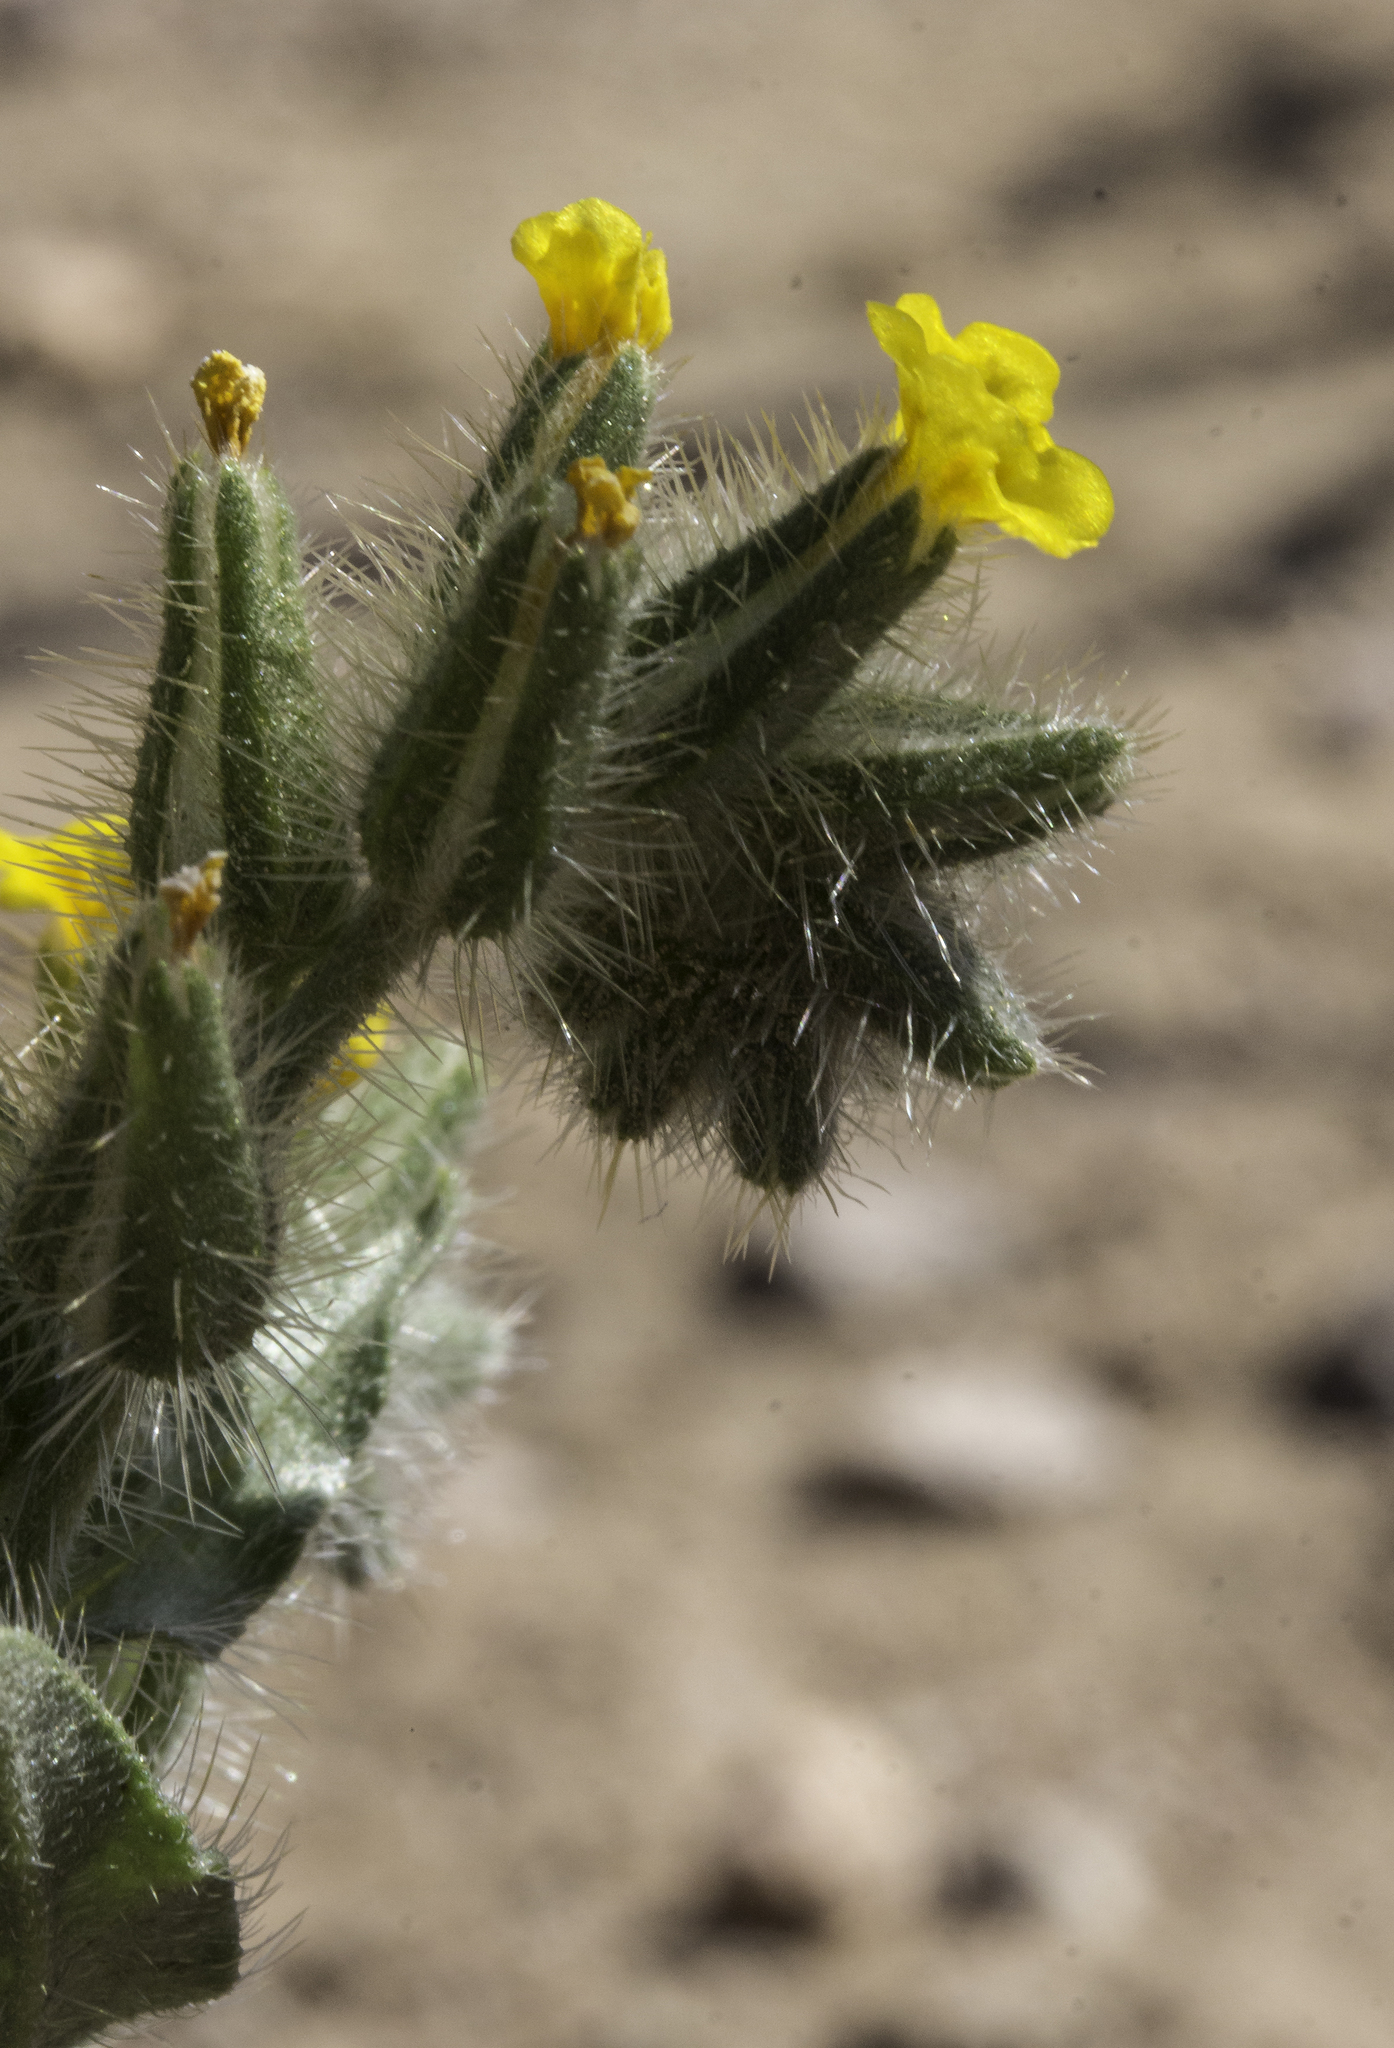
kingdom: Plantae
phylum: Tracheophyta
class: Magnoliopsida
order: Boraginales
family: Boraginaceae
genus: Amsinckia
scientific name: Amsinckia tessellata
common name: Tessellate fiddleneck
